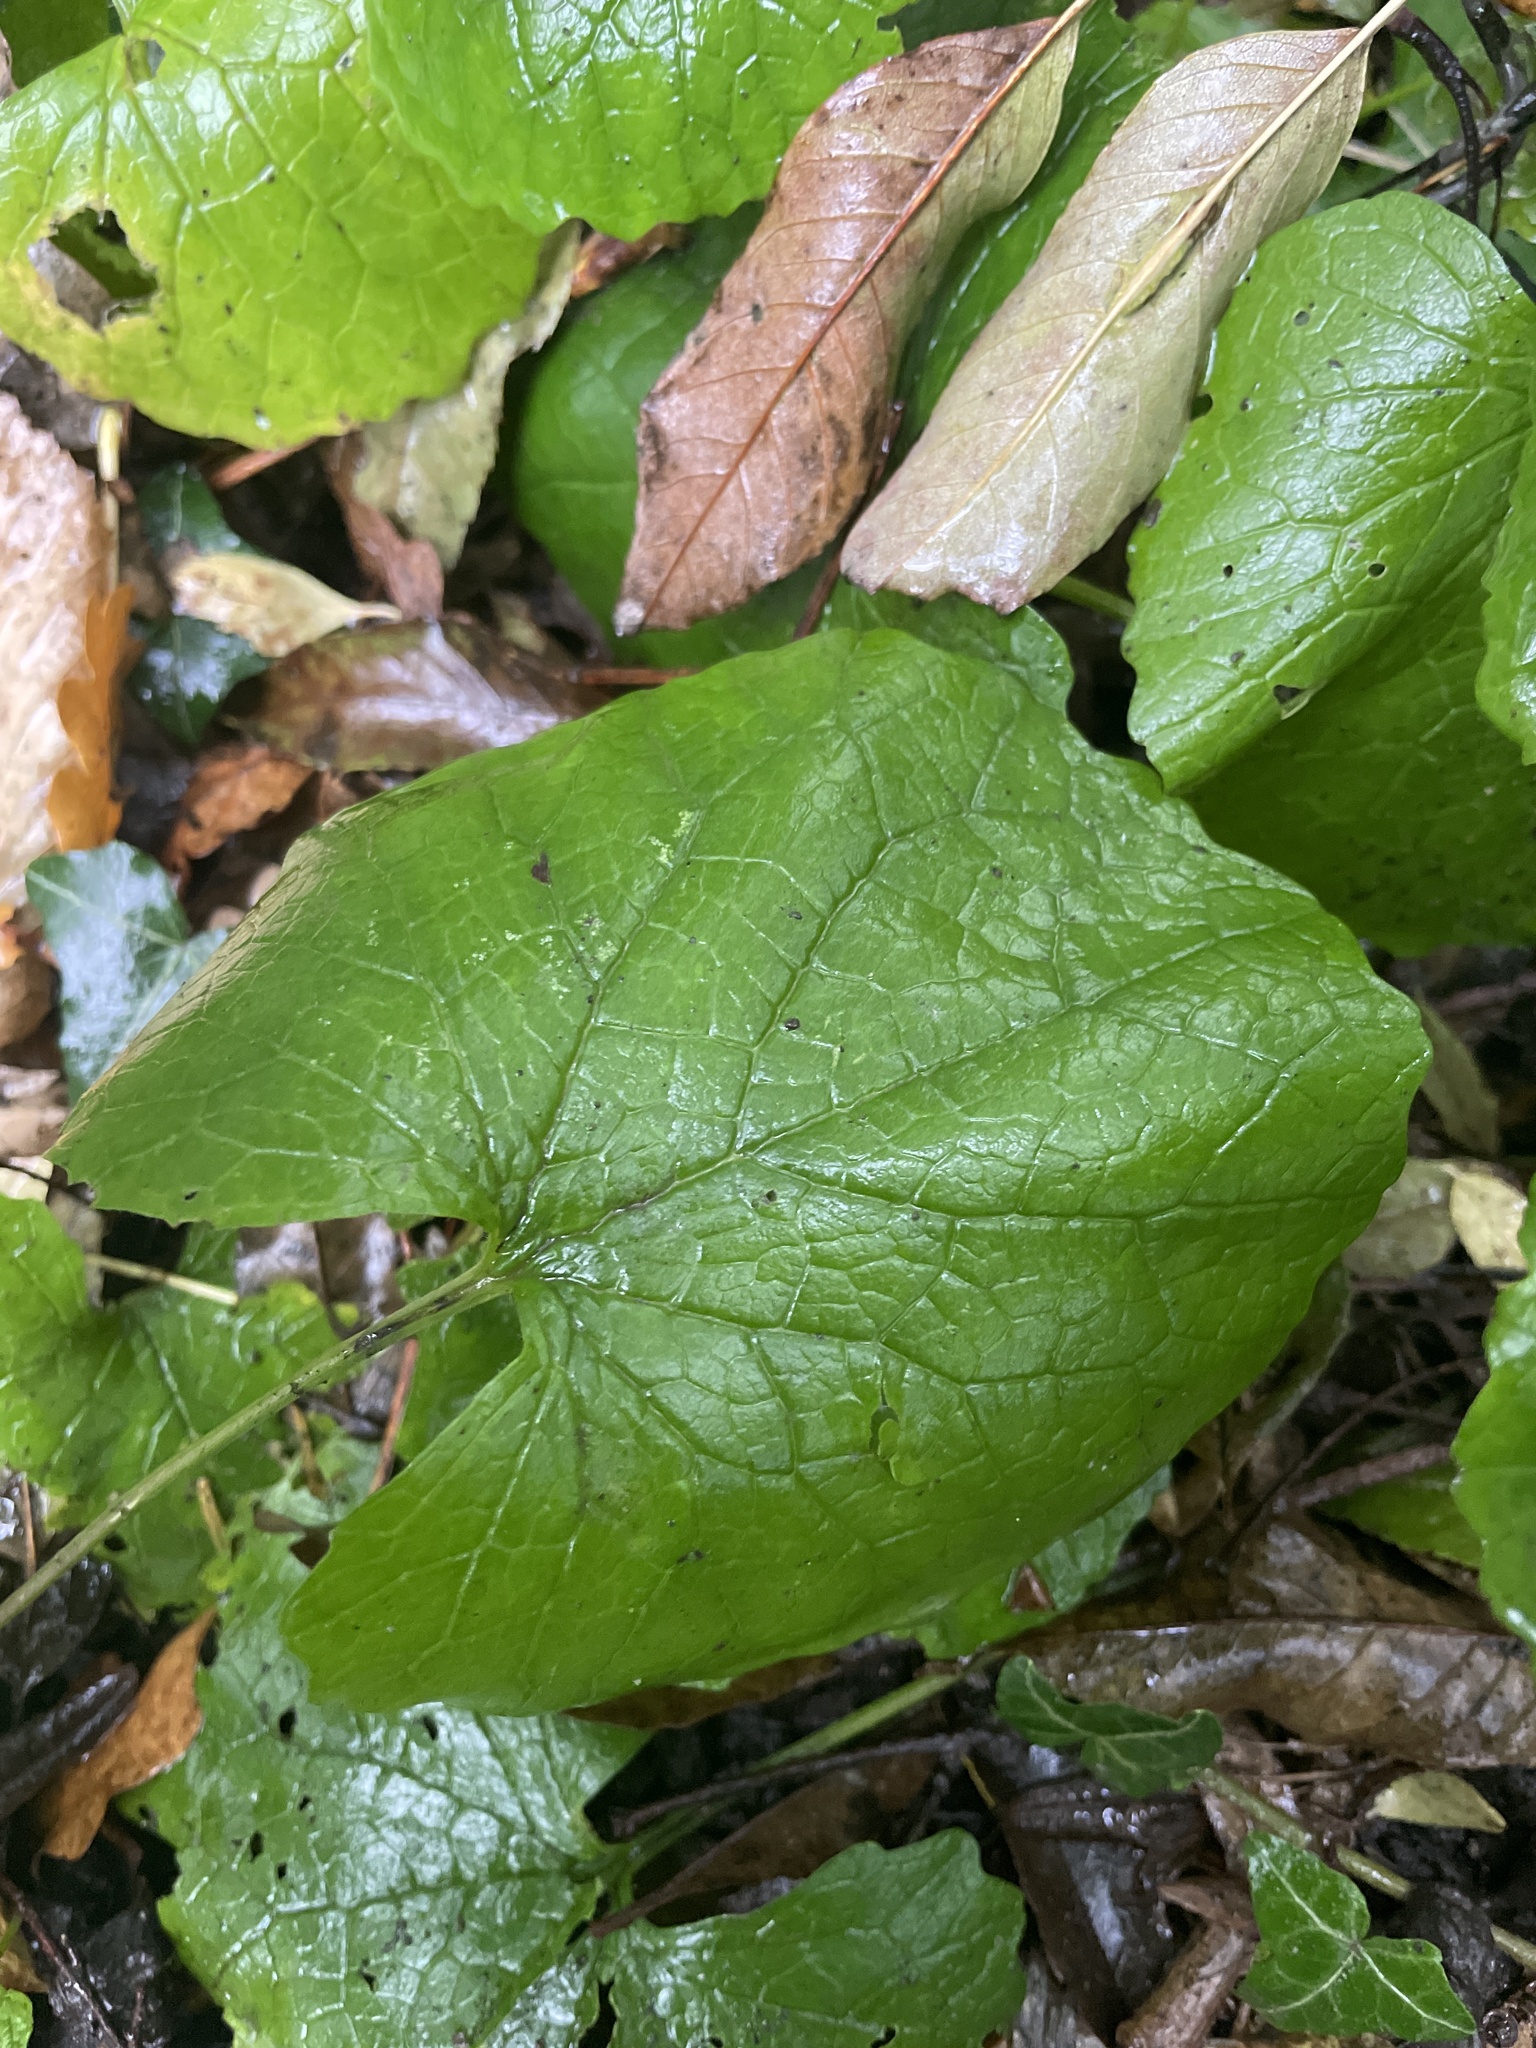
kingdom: Plantae
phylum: Tracheophyta
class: Magnoliopsida
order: Brassicales
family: Brassicaceae
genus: Alliaria
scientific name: Alliaria petiolata
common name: Garlic mustard
